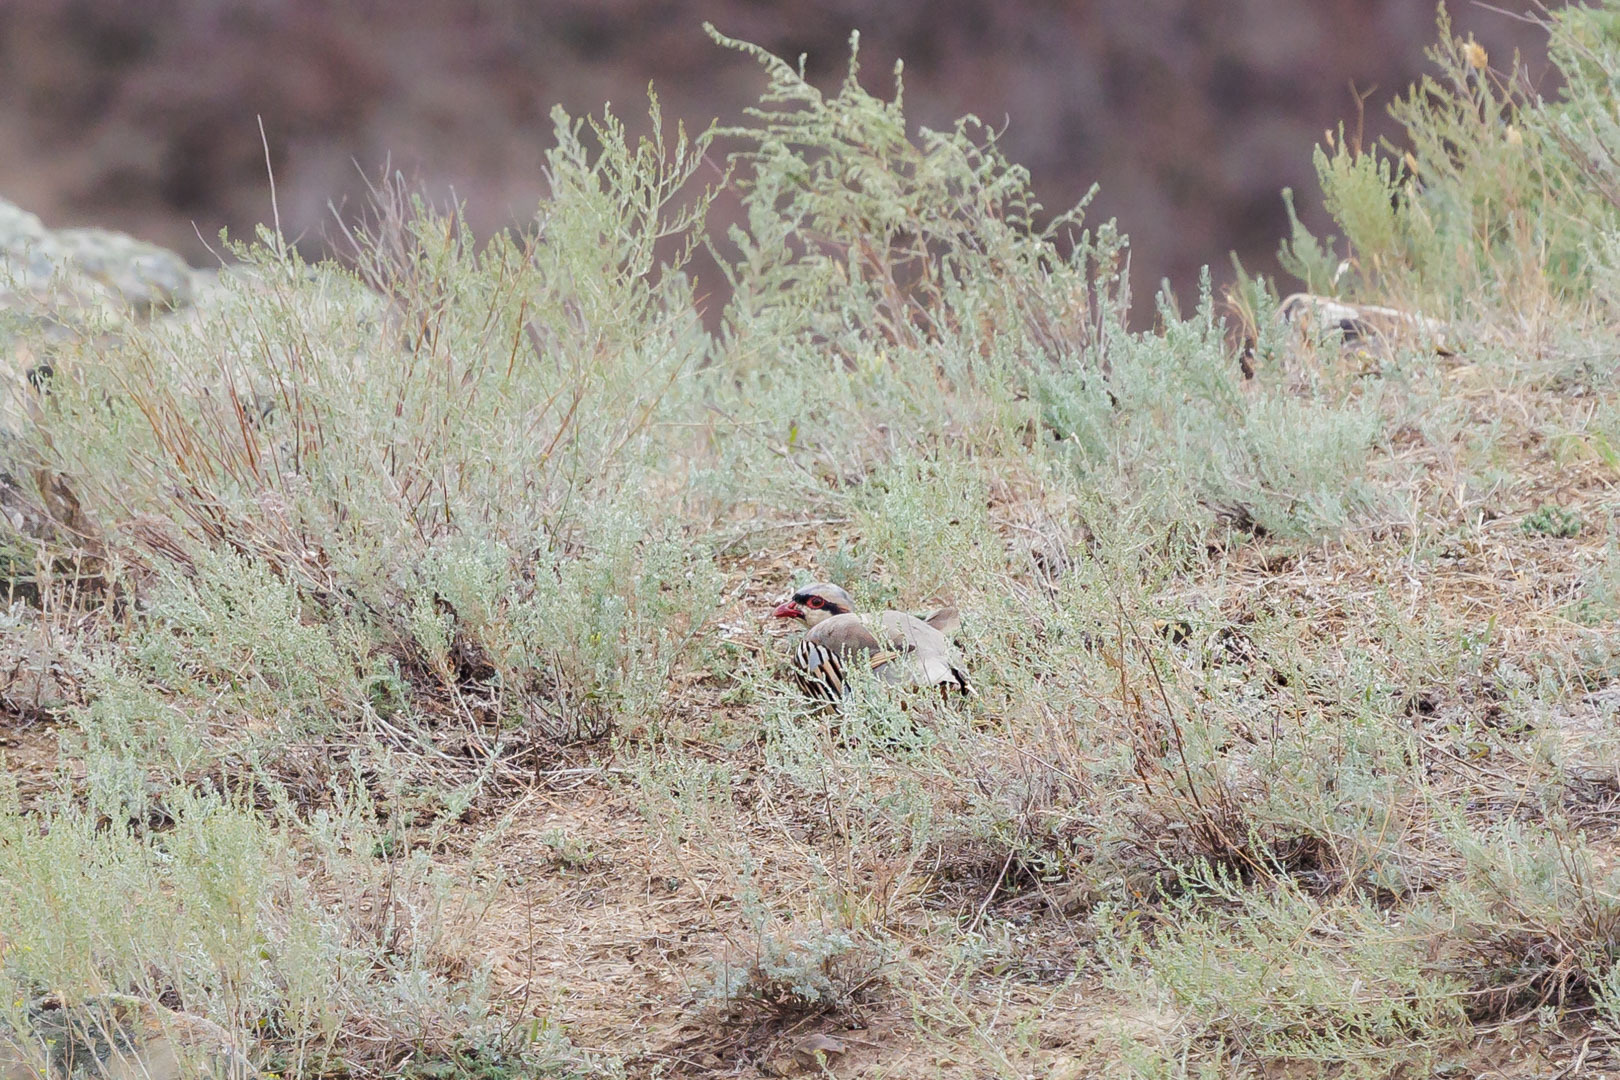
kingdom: Animalia
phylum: Chordata
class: Aves
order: Galliformes
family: Phasianidae
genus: Alectoris
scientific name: Alectoris chukar
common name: Chukar
